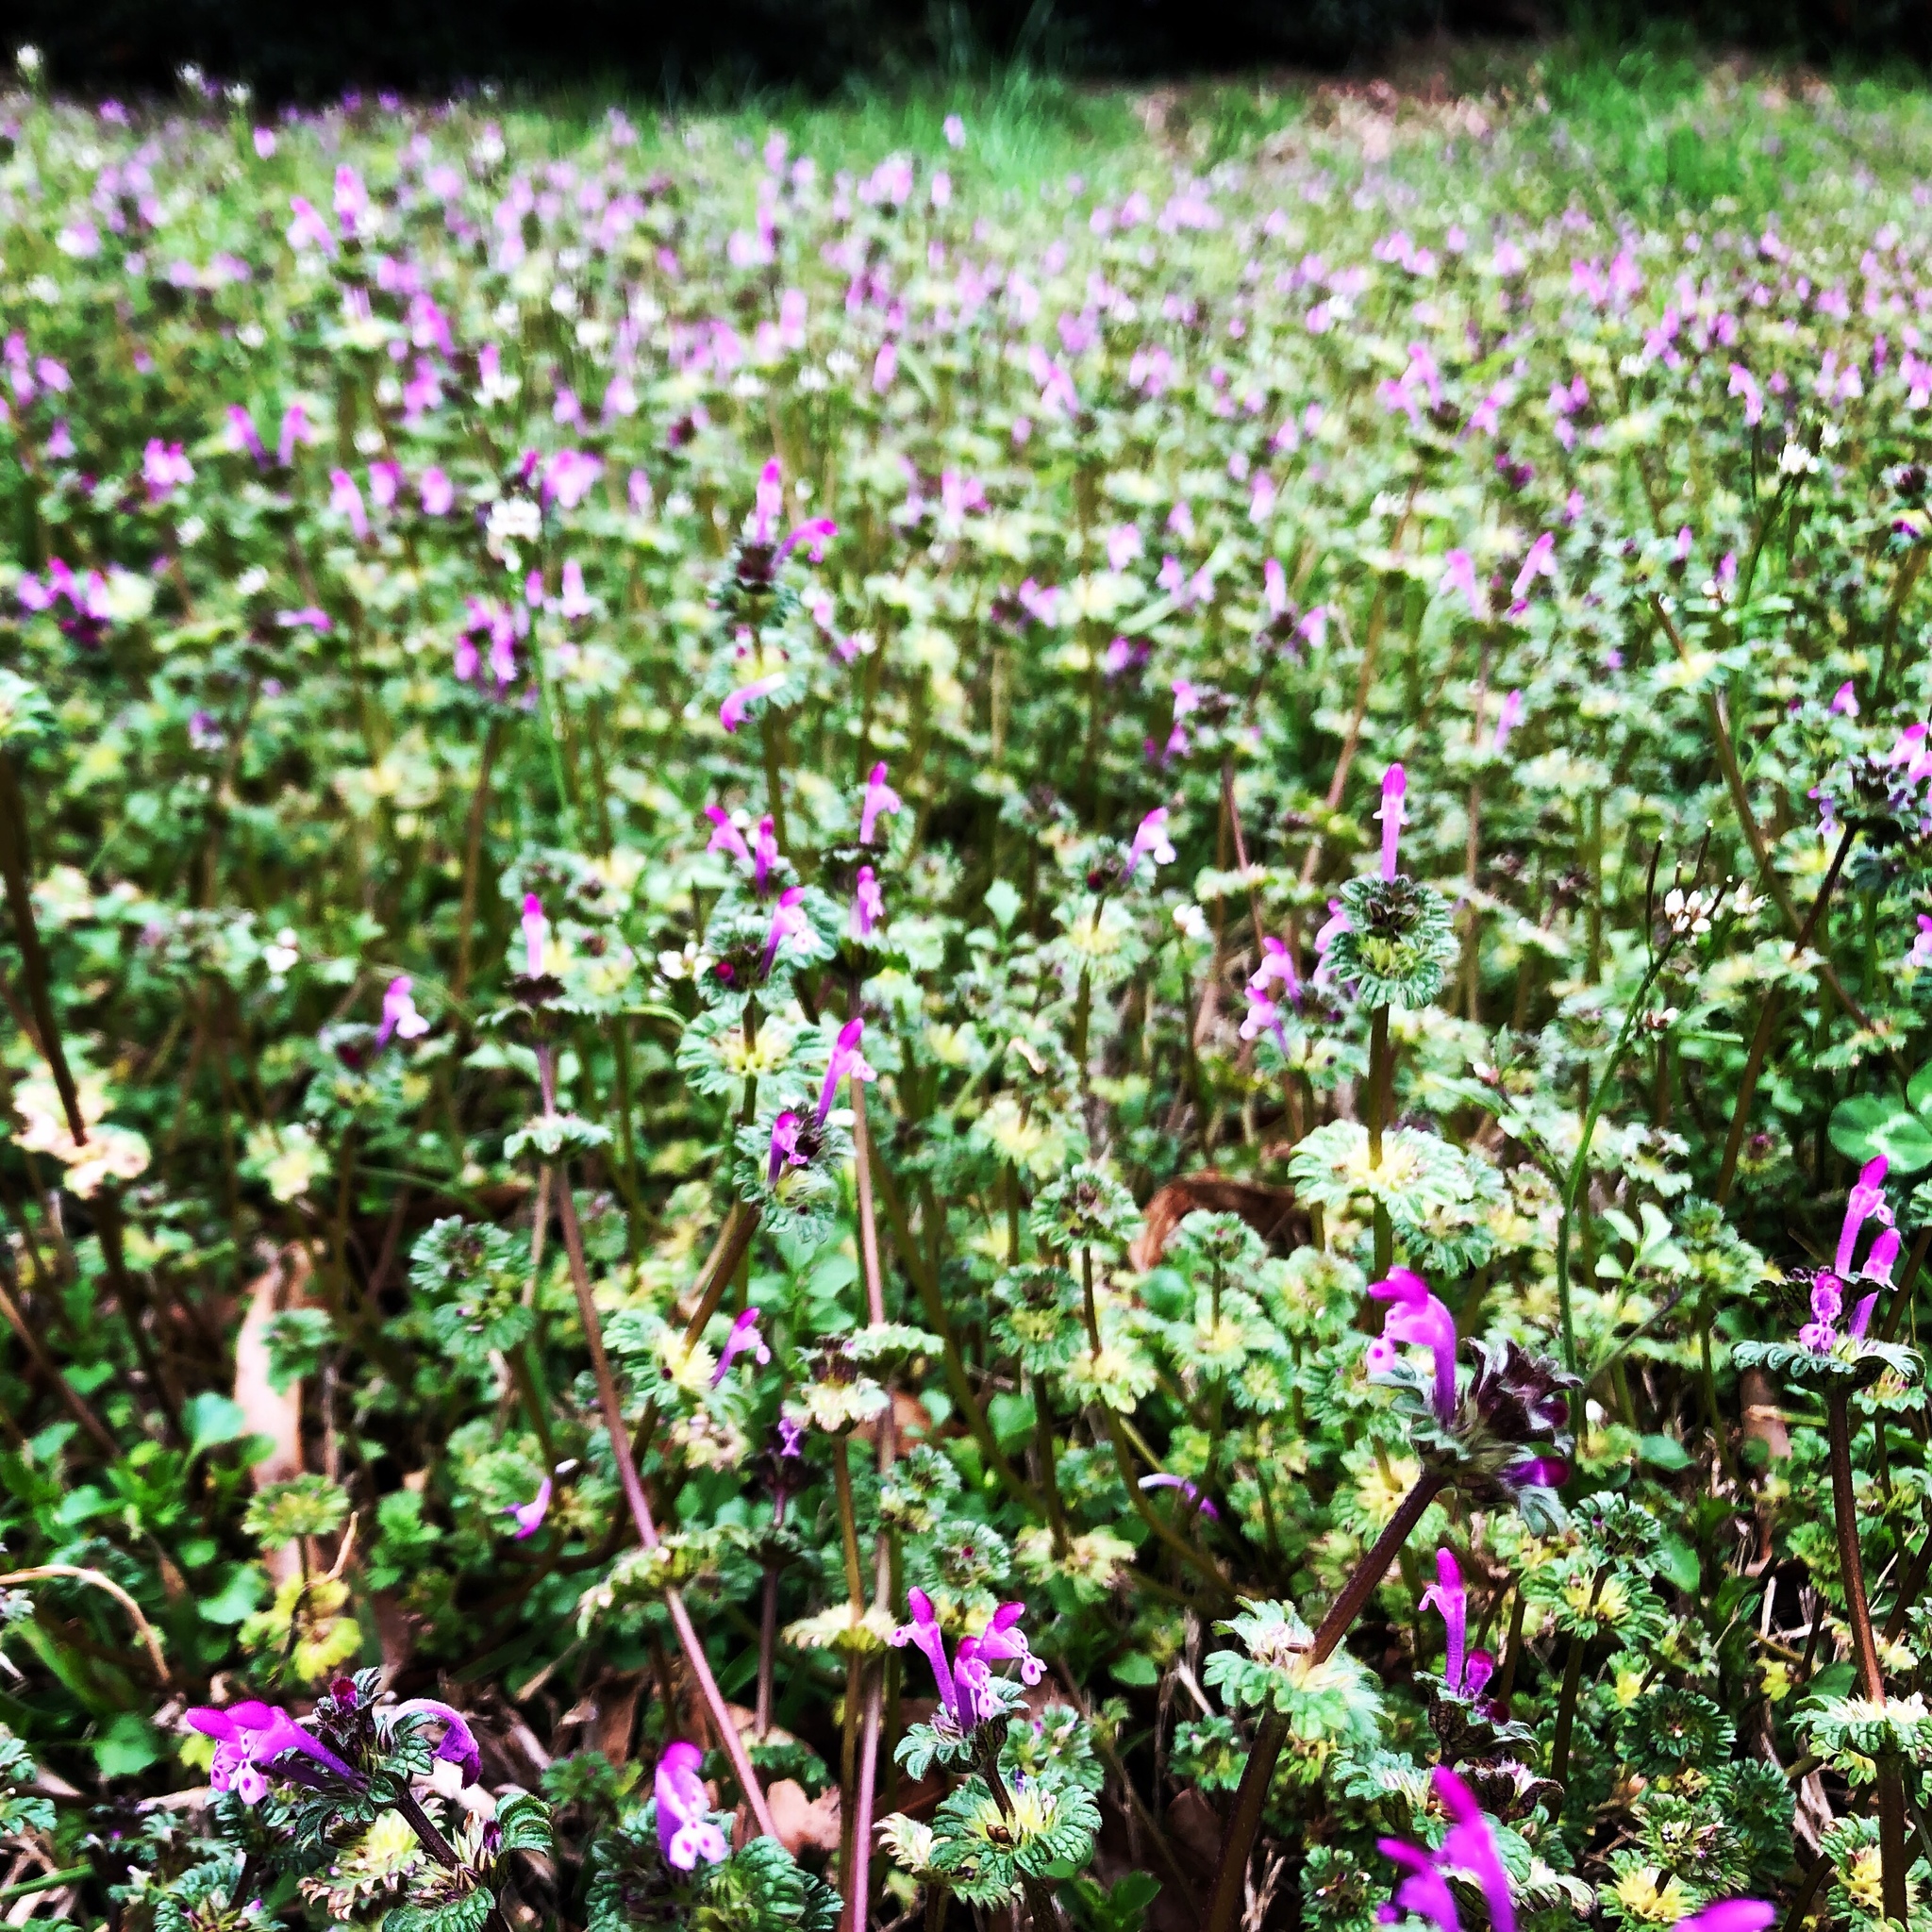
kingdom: Plantae
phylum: Tracheophyta
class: Magnoliopsida
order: Lamiales
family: Lamiaceae
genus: Lamium
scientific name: Lamium amplexicaule
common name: Henbit dead-nettle
